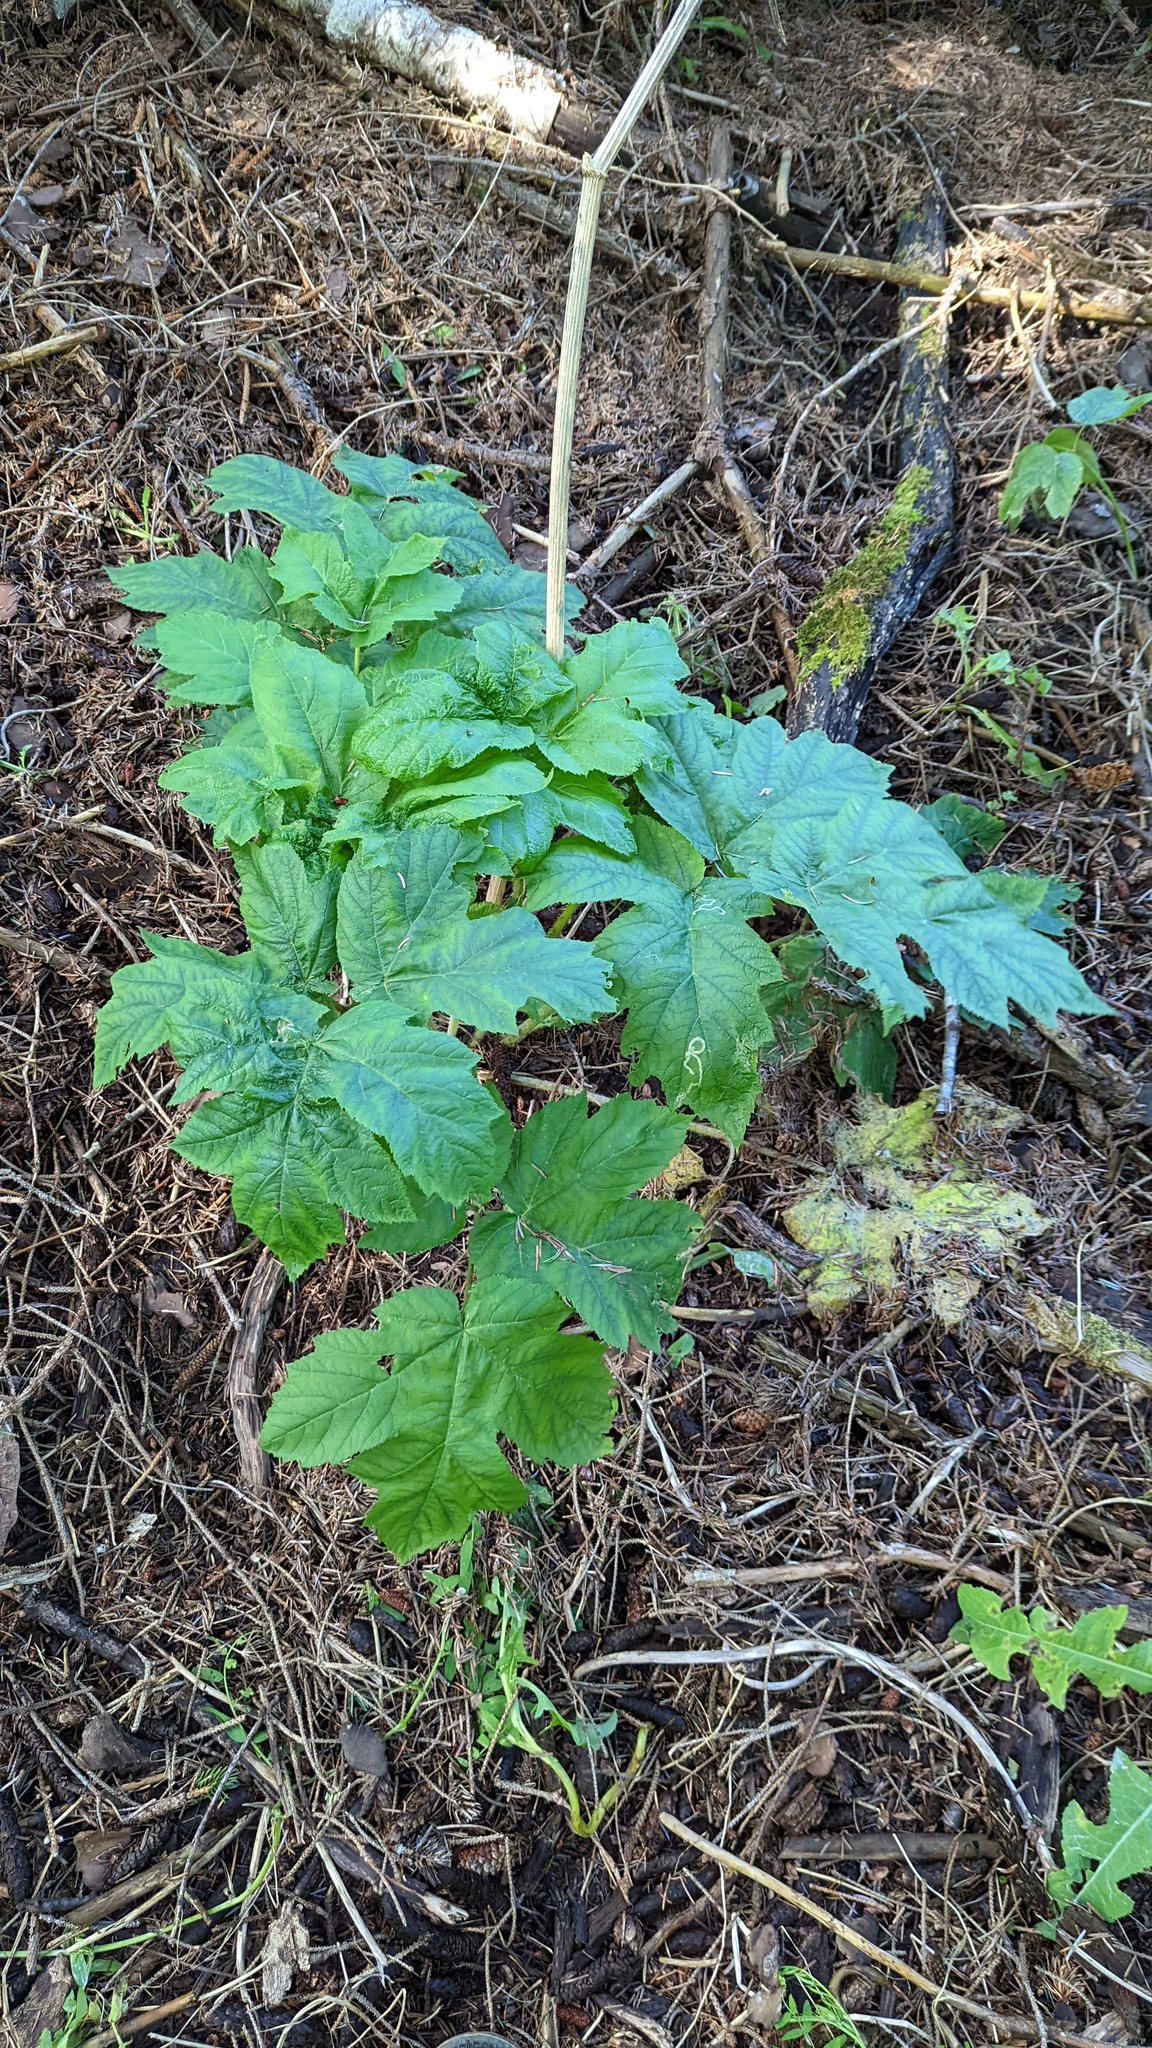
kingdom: Plantae
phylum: Tracheophyta
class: Magnoliopsida
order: Apiales
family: Apiaceae
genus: Heracleum
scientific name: Heracleum maximum
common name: American cow parsnip
